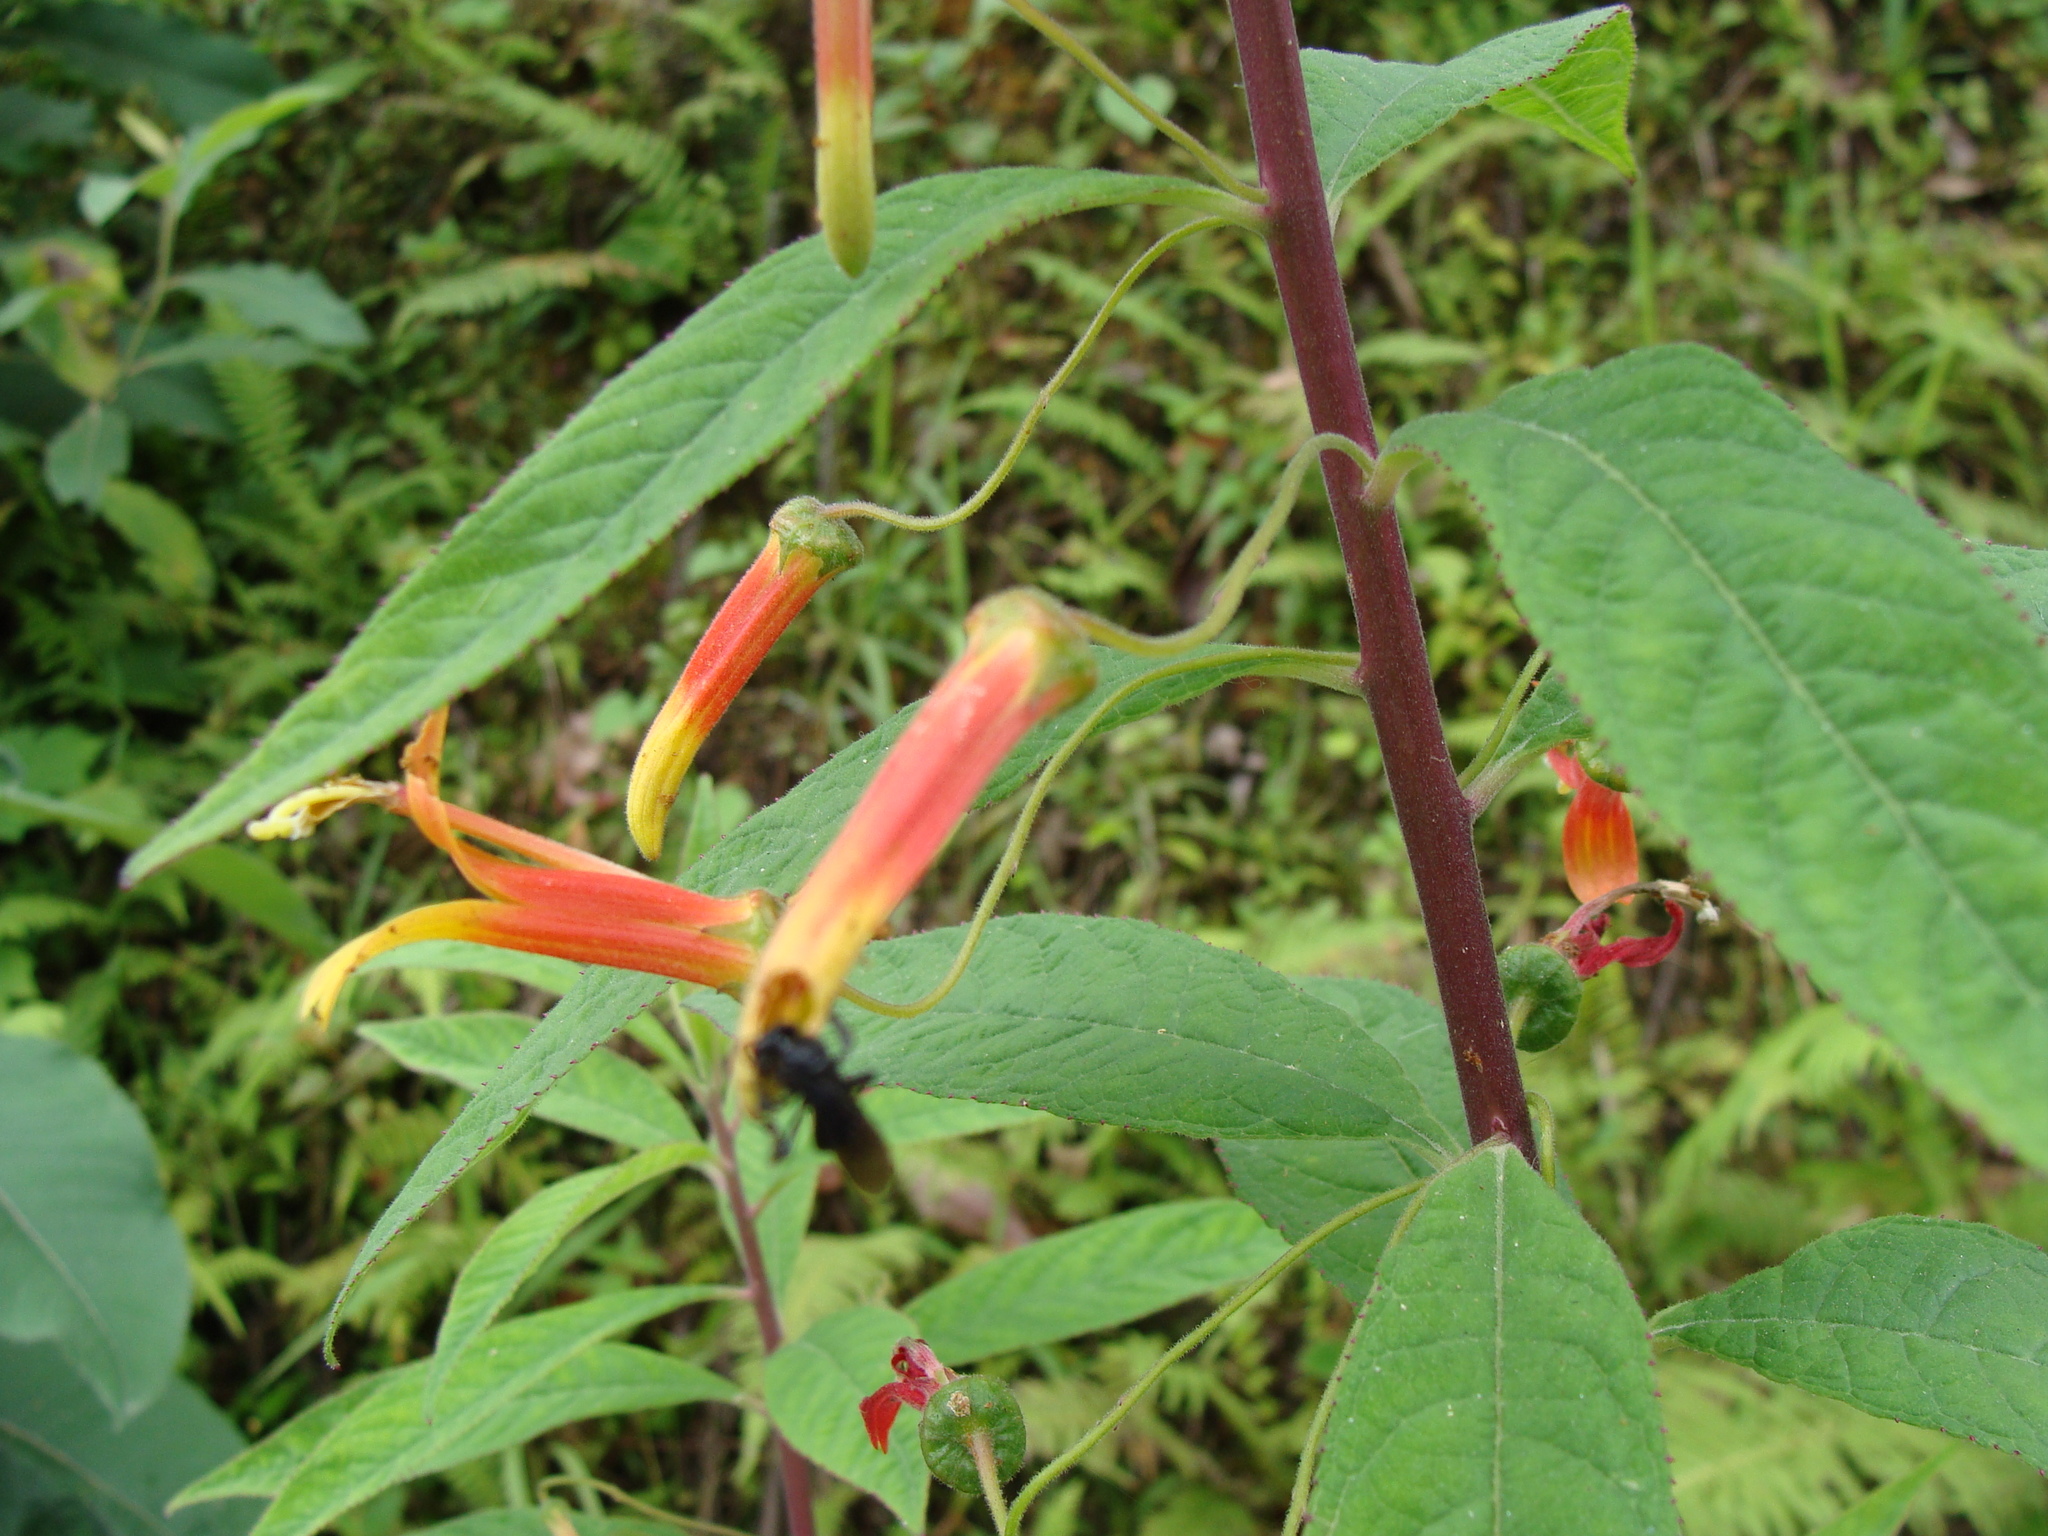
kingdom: Plantae
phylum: Tracheophyta
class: Magnoliopsida
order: Asterales
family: Campanulaceae
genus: Lobelia
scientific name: Lobelia laxiflora
